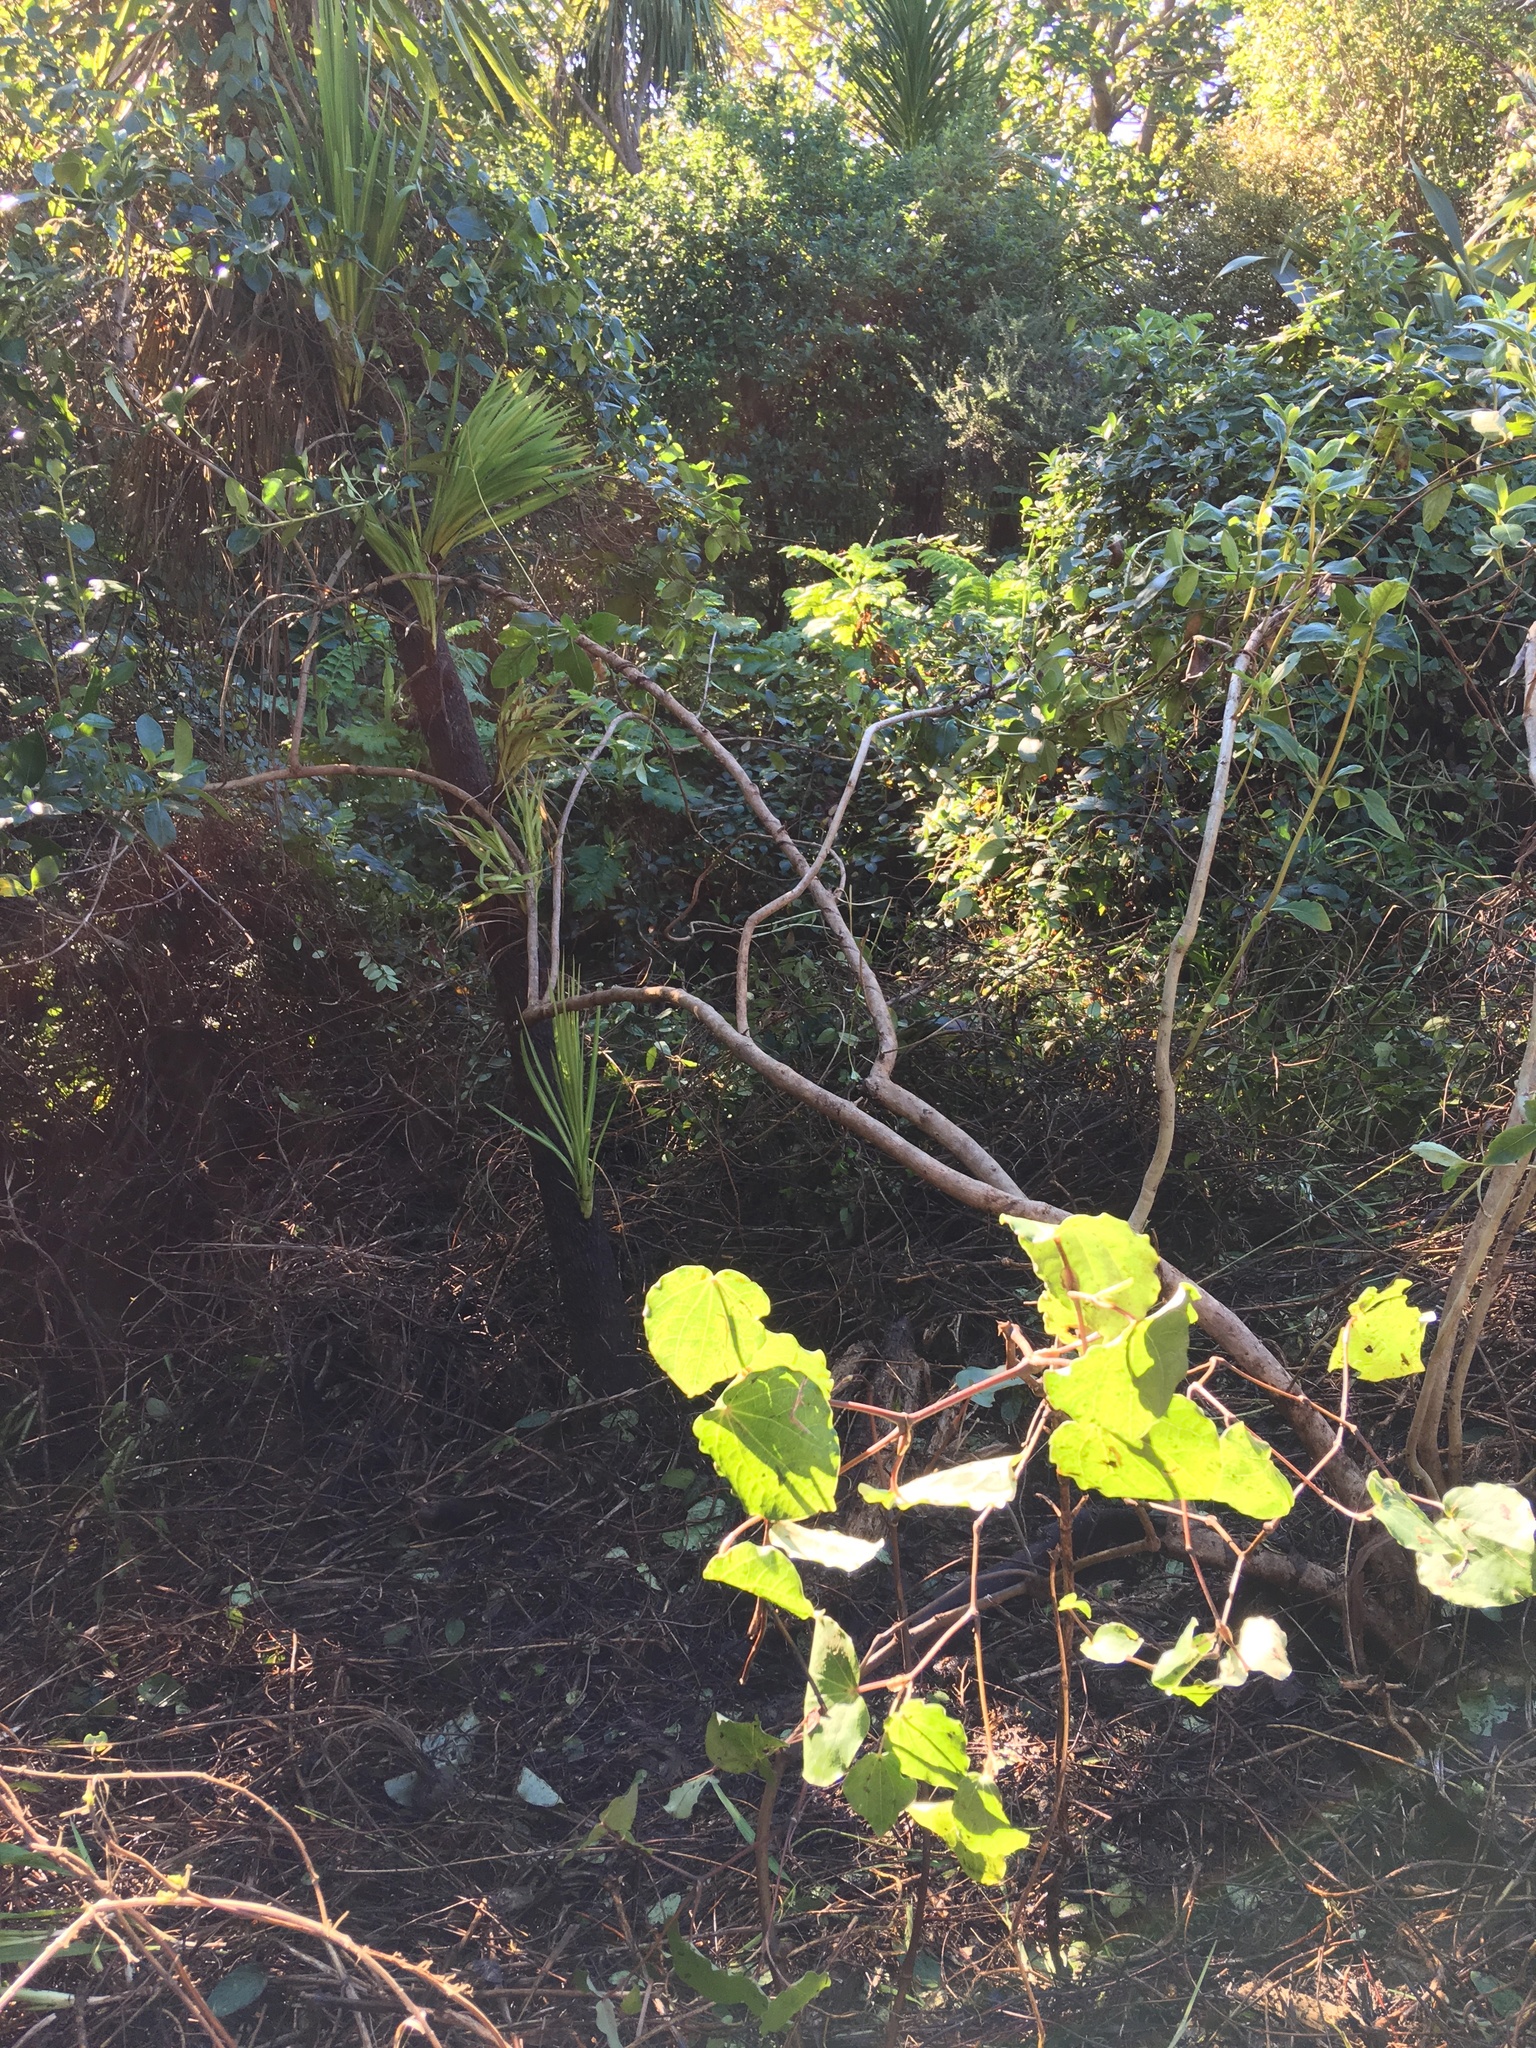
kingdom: Plantae
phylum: Tracheophyta
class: Magnoliopsida
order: Piperales
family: Piperaceae
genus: Macropiper
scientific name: Macropiper excelsum
